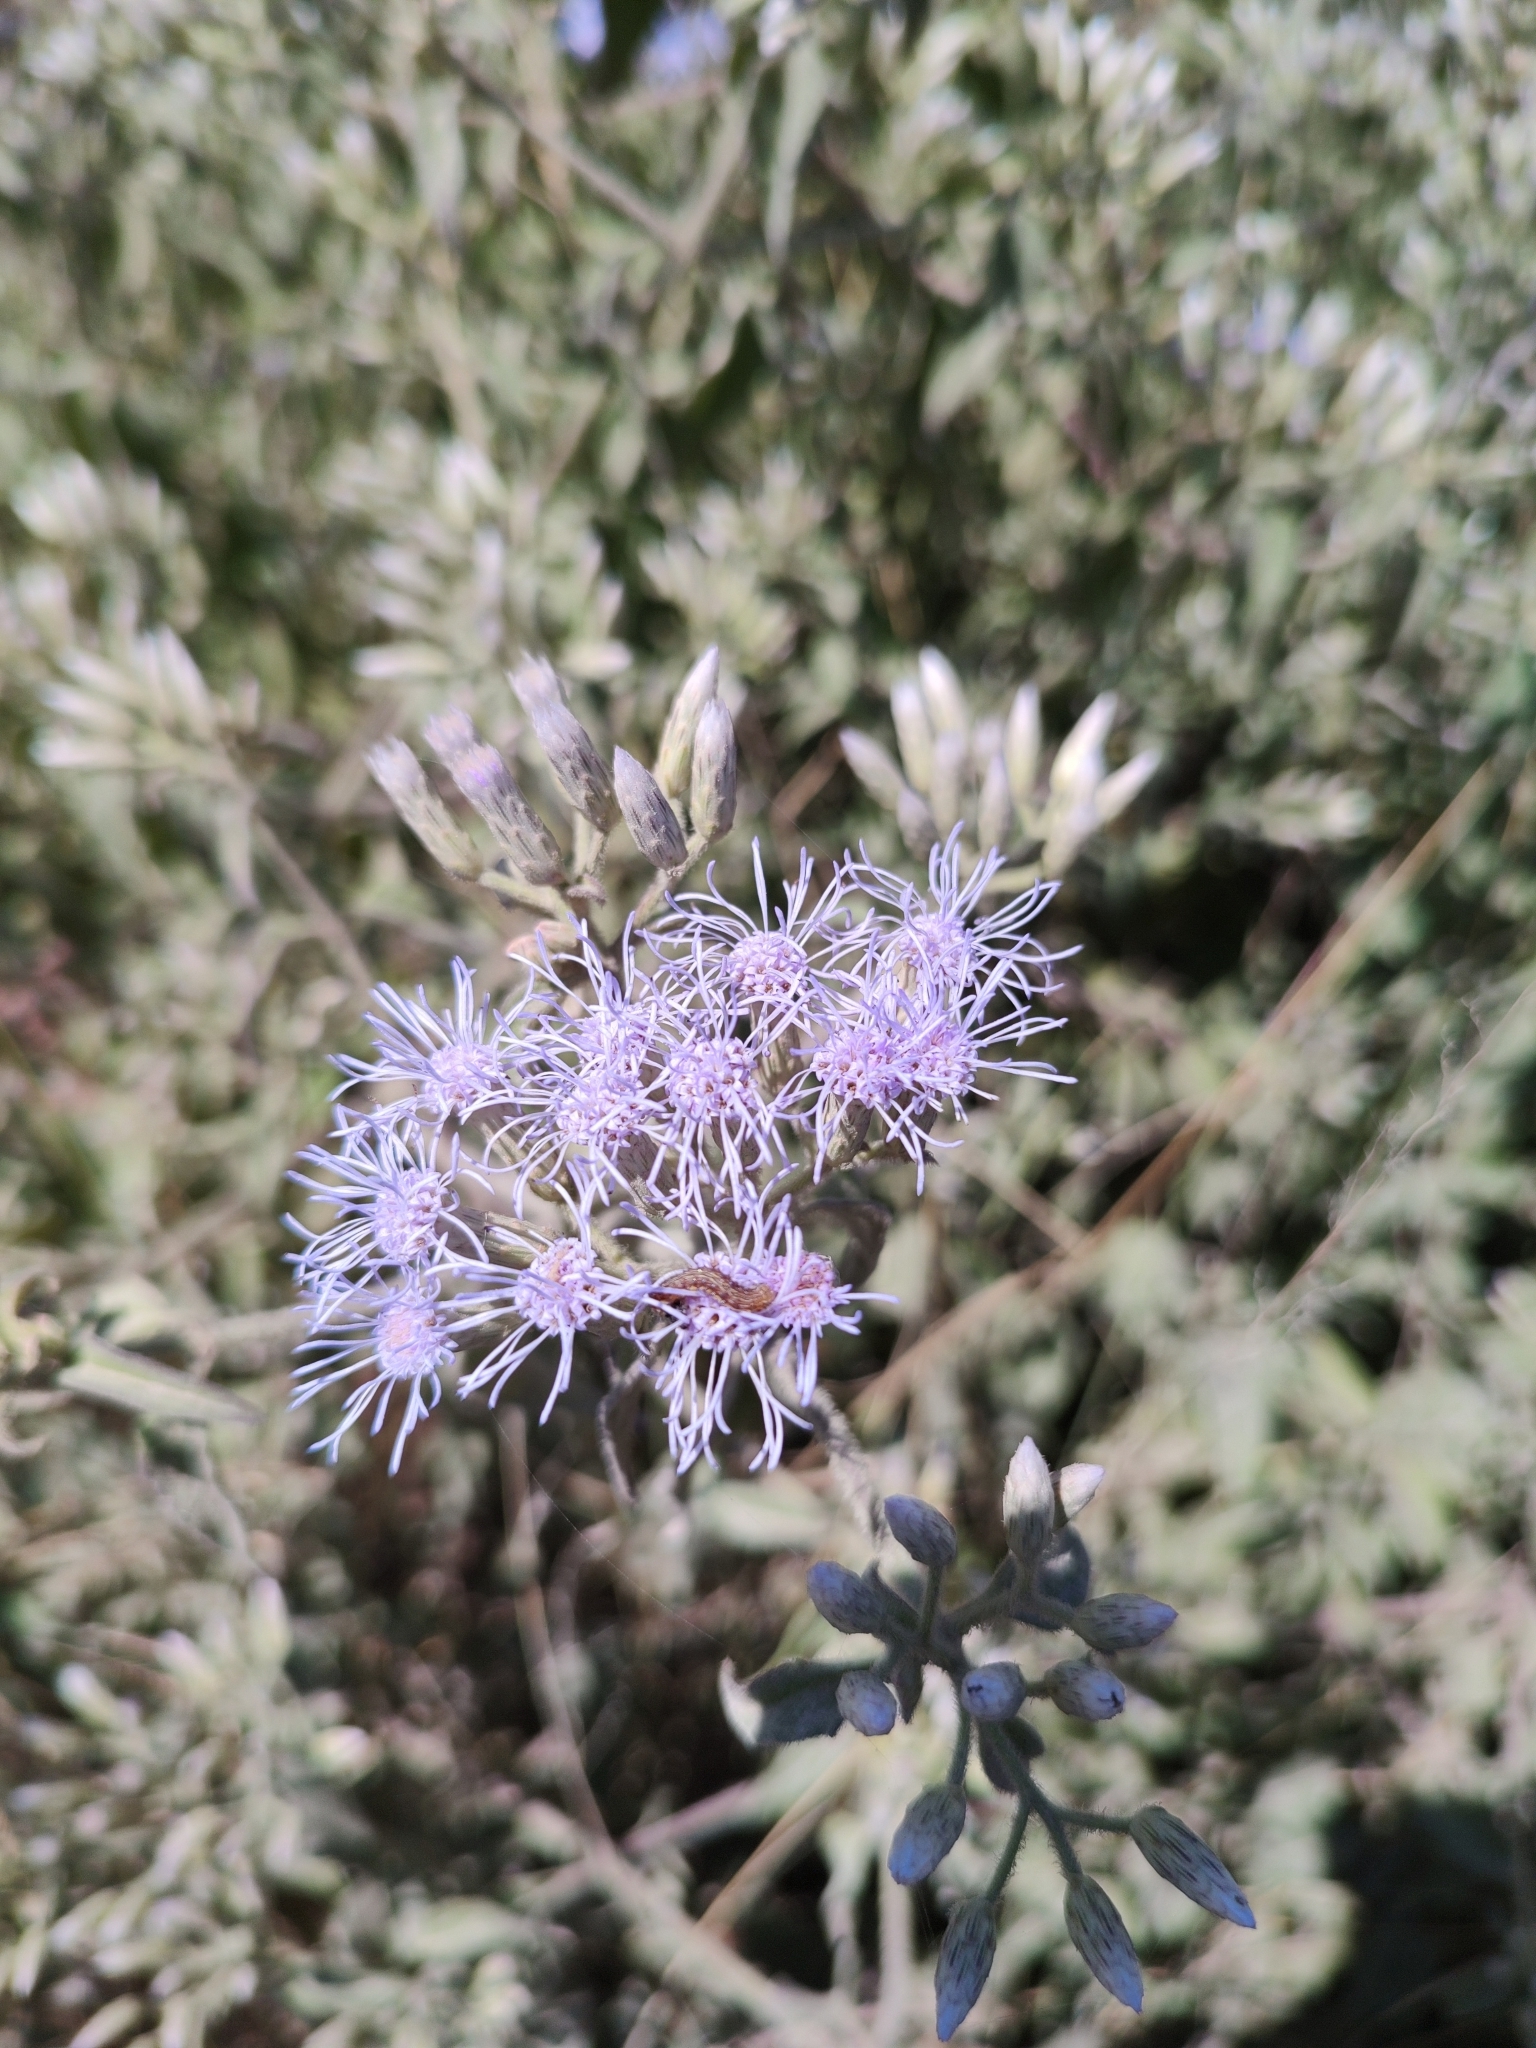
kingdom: Plantae
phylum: Tracheophyta
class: Magnoliopsida
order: Asterales
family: Asteraceae
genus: Chromolaena
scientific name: Chromolaena odorata
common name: Siamweed
